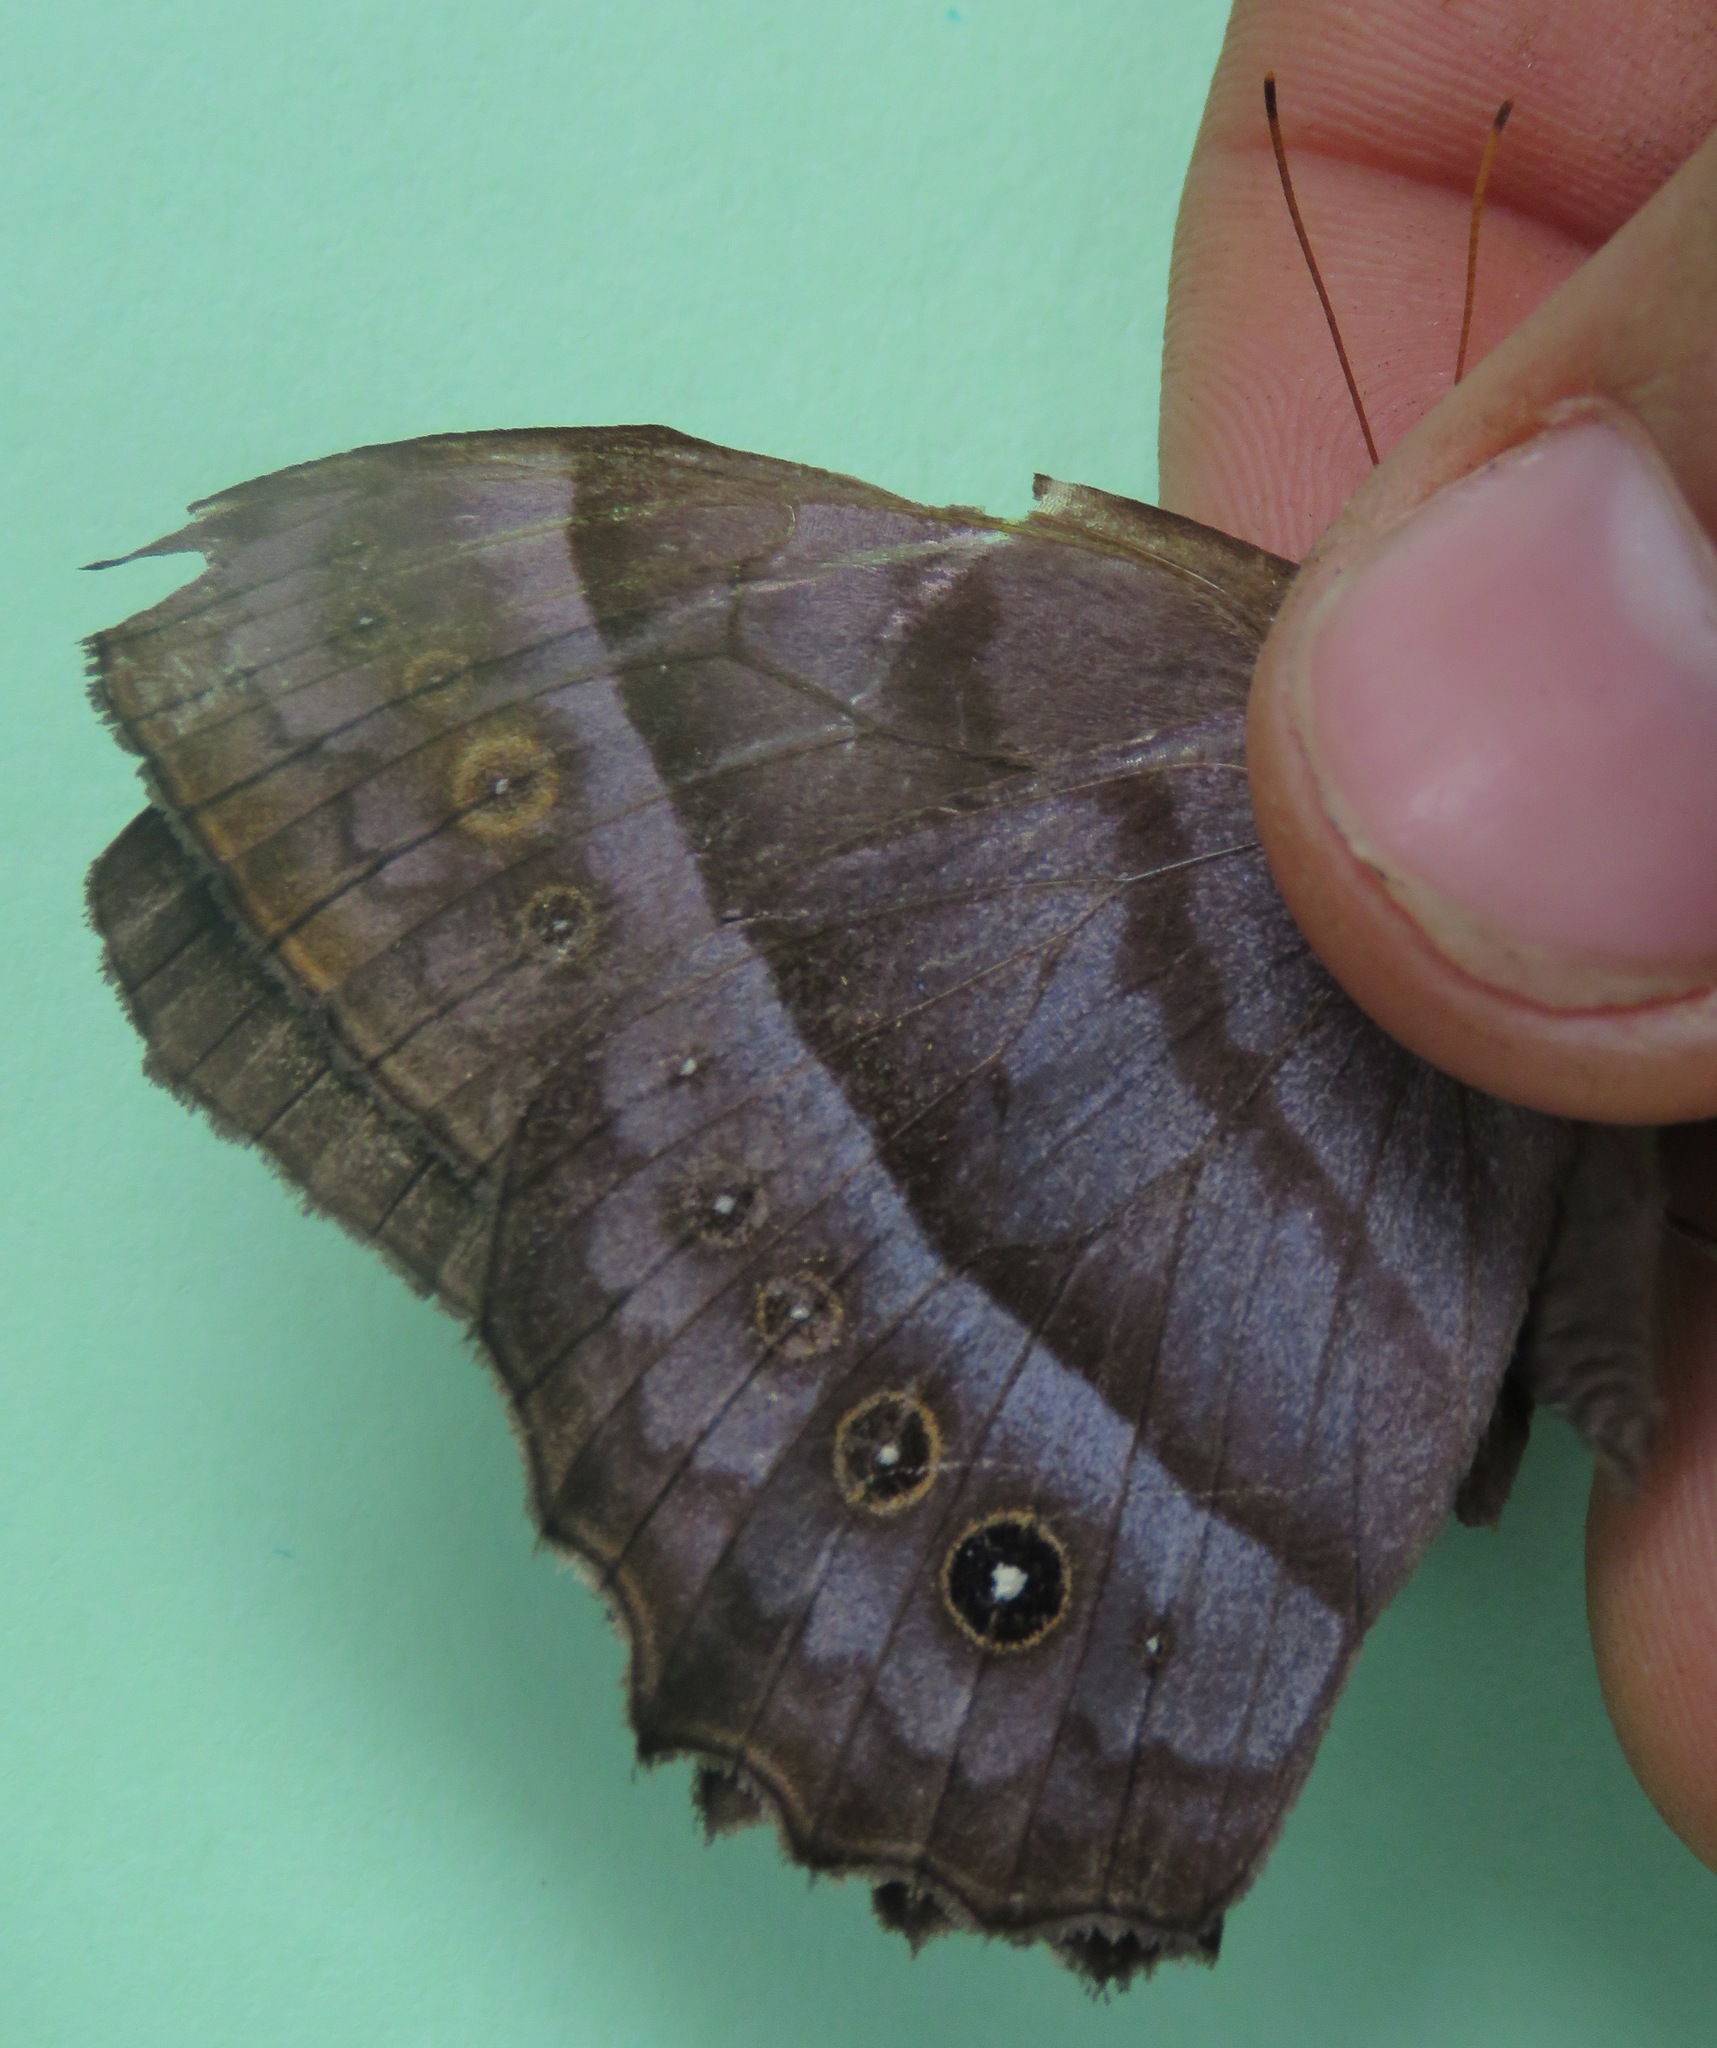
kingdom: Animalia
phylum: Arthropoda
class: Insecta
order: Lepidoptera
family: Nymphalidae
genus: Taygetis
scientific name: Taygetis andromeda
